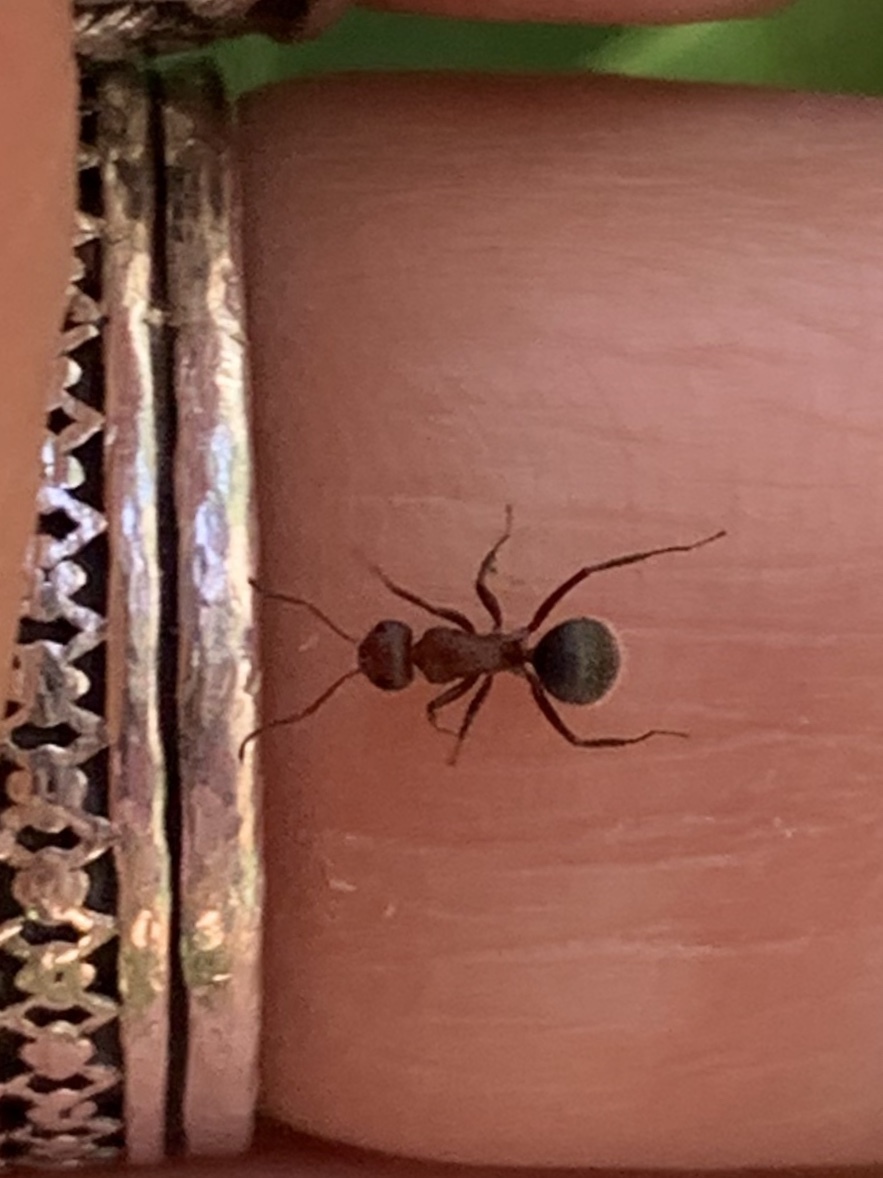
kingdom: Animalia
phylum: Arthropoda
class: Insecta
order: Hymenoptera
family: Formicidae
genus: Camponotus
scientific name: Camponotus planatus
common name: Compact carpenter ant
